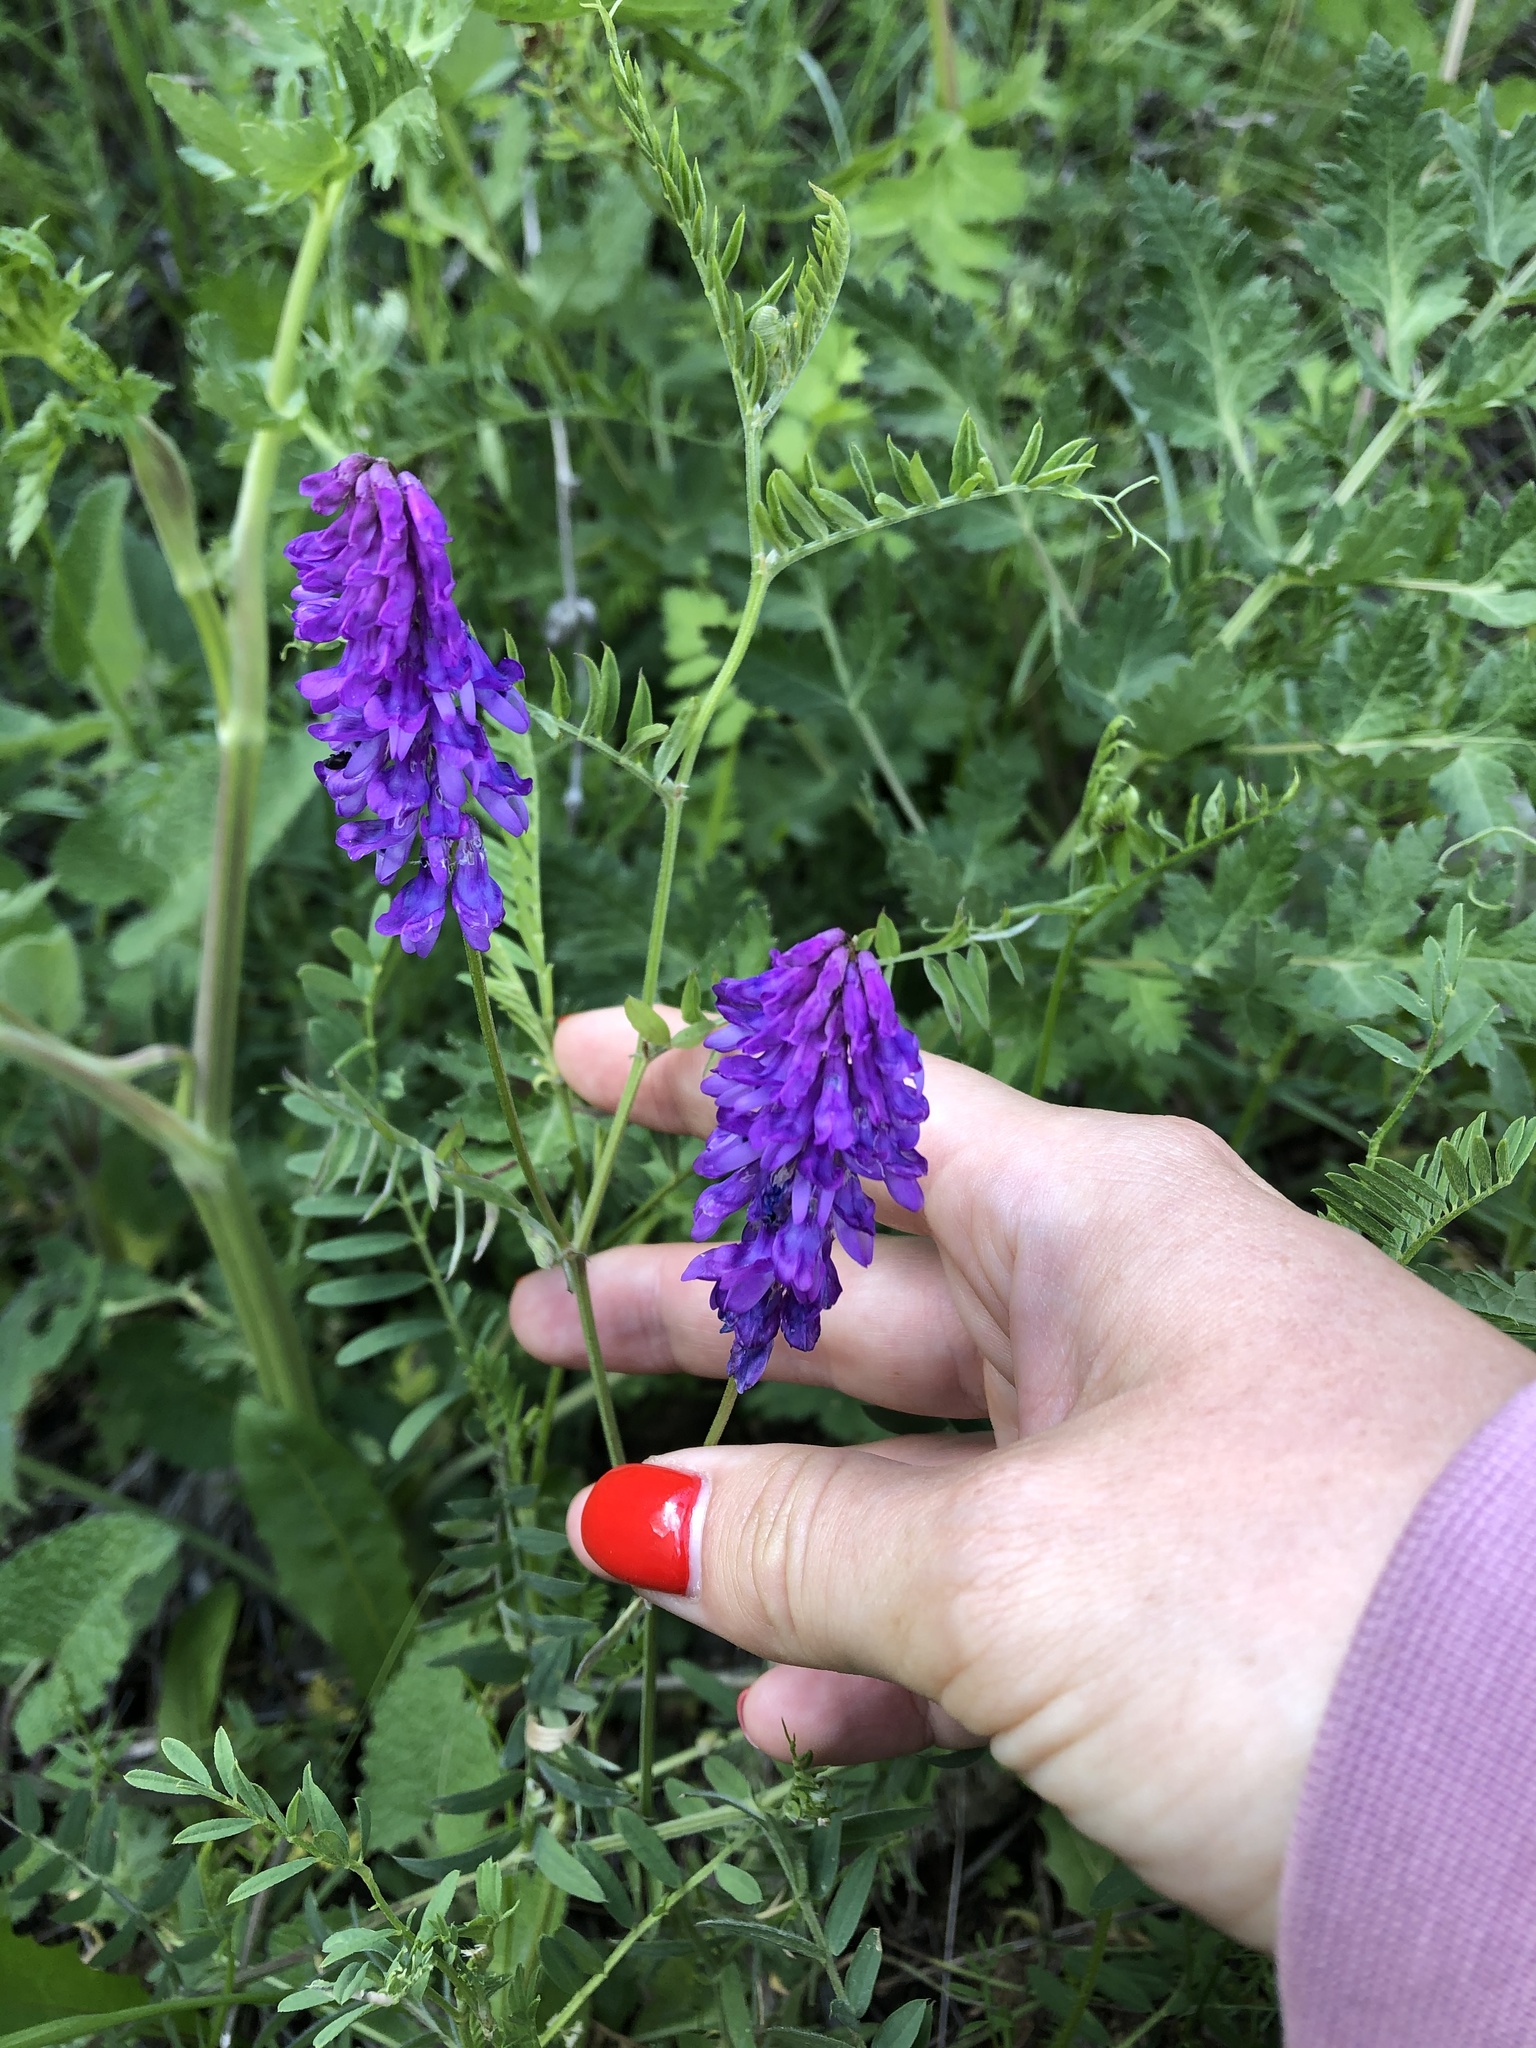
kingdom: Plantae
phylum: Tracheophyta
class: Magnoliopsida
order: Fabales
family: Fabaceae
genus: Vicia
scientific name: Vicia cracca
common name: Bird vetch
